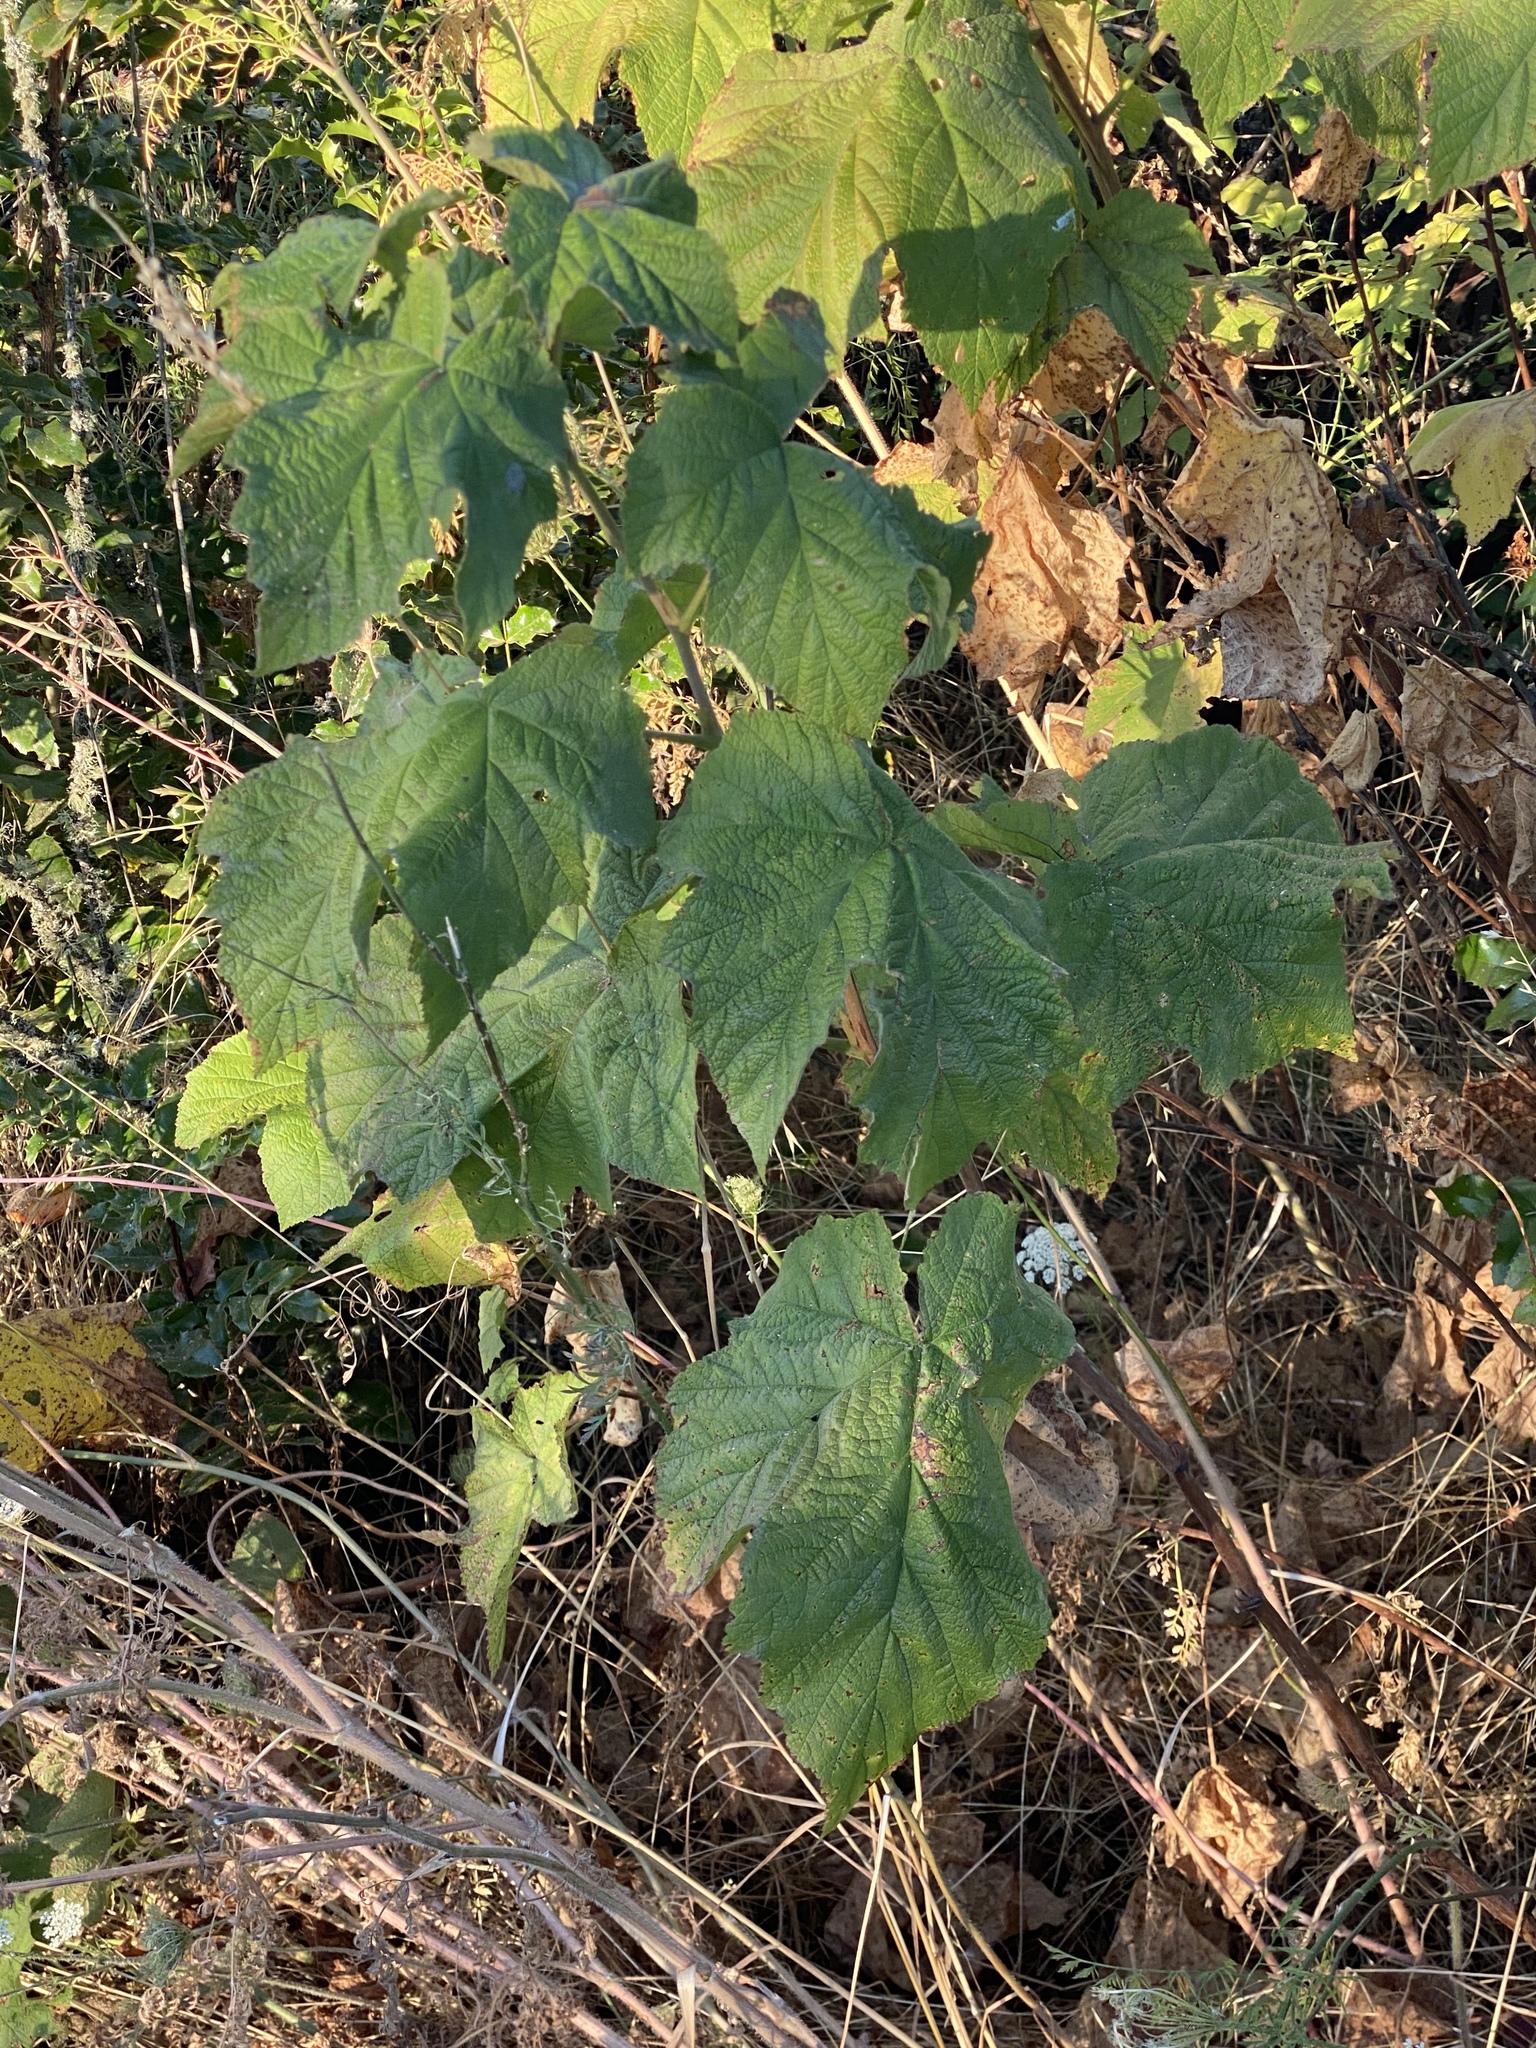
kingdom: Plantae
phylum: Tracheophyta
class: Magnoliopsida
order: Rosales
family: Rosaceae
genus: Rubus
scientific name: Rubus parviflorus
